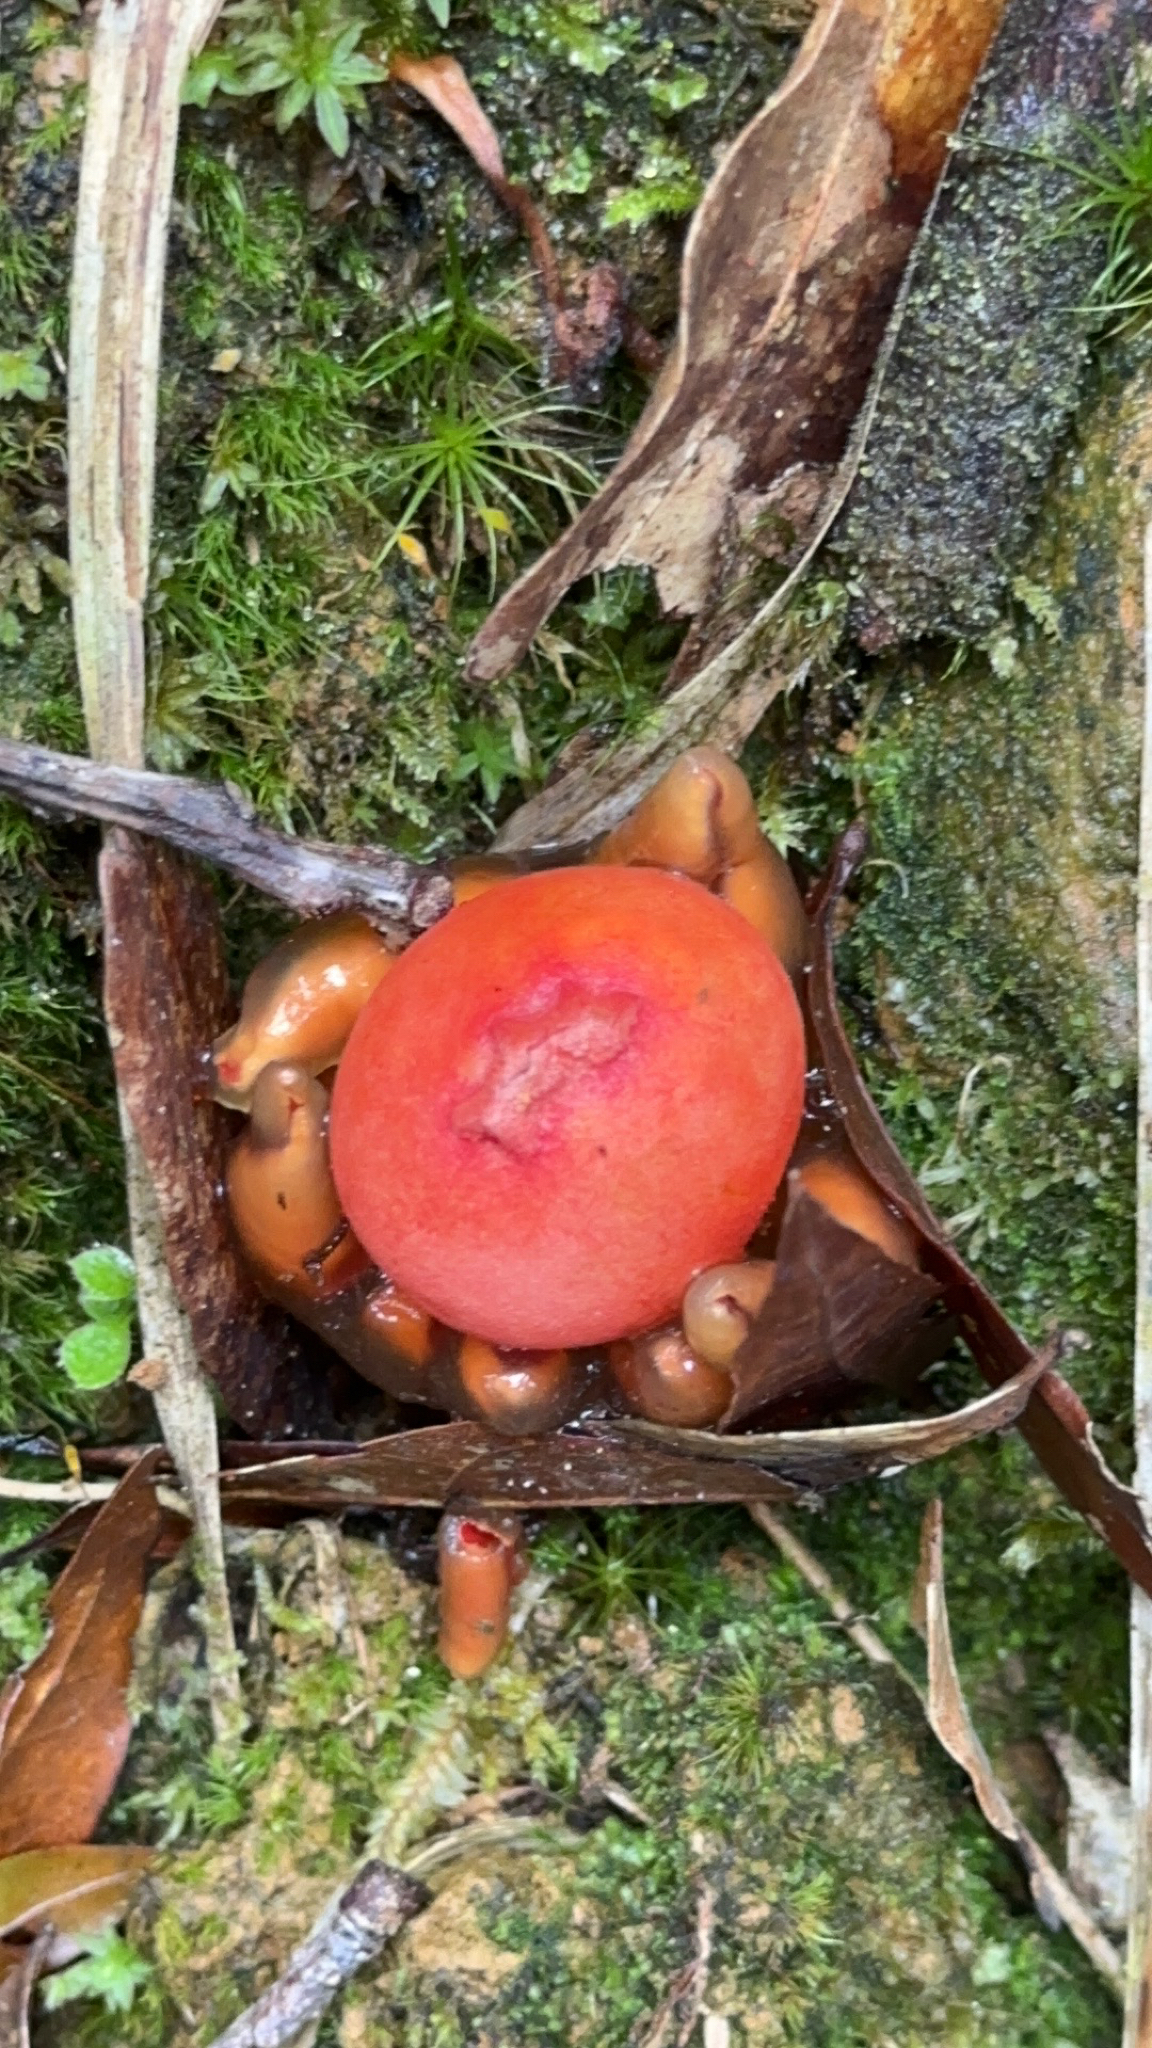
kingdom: Fungi
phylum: Basidiomycota
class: Agaricomycetes
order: Boletales
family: Calostomataceae
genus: Calostoma
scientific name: Calostoma cinnabarinum
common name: Stalked puffball-in-aspic
